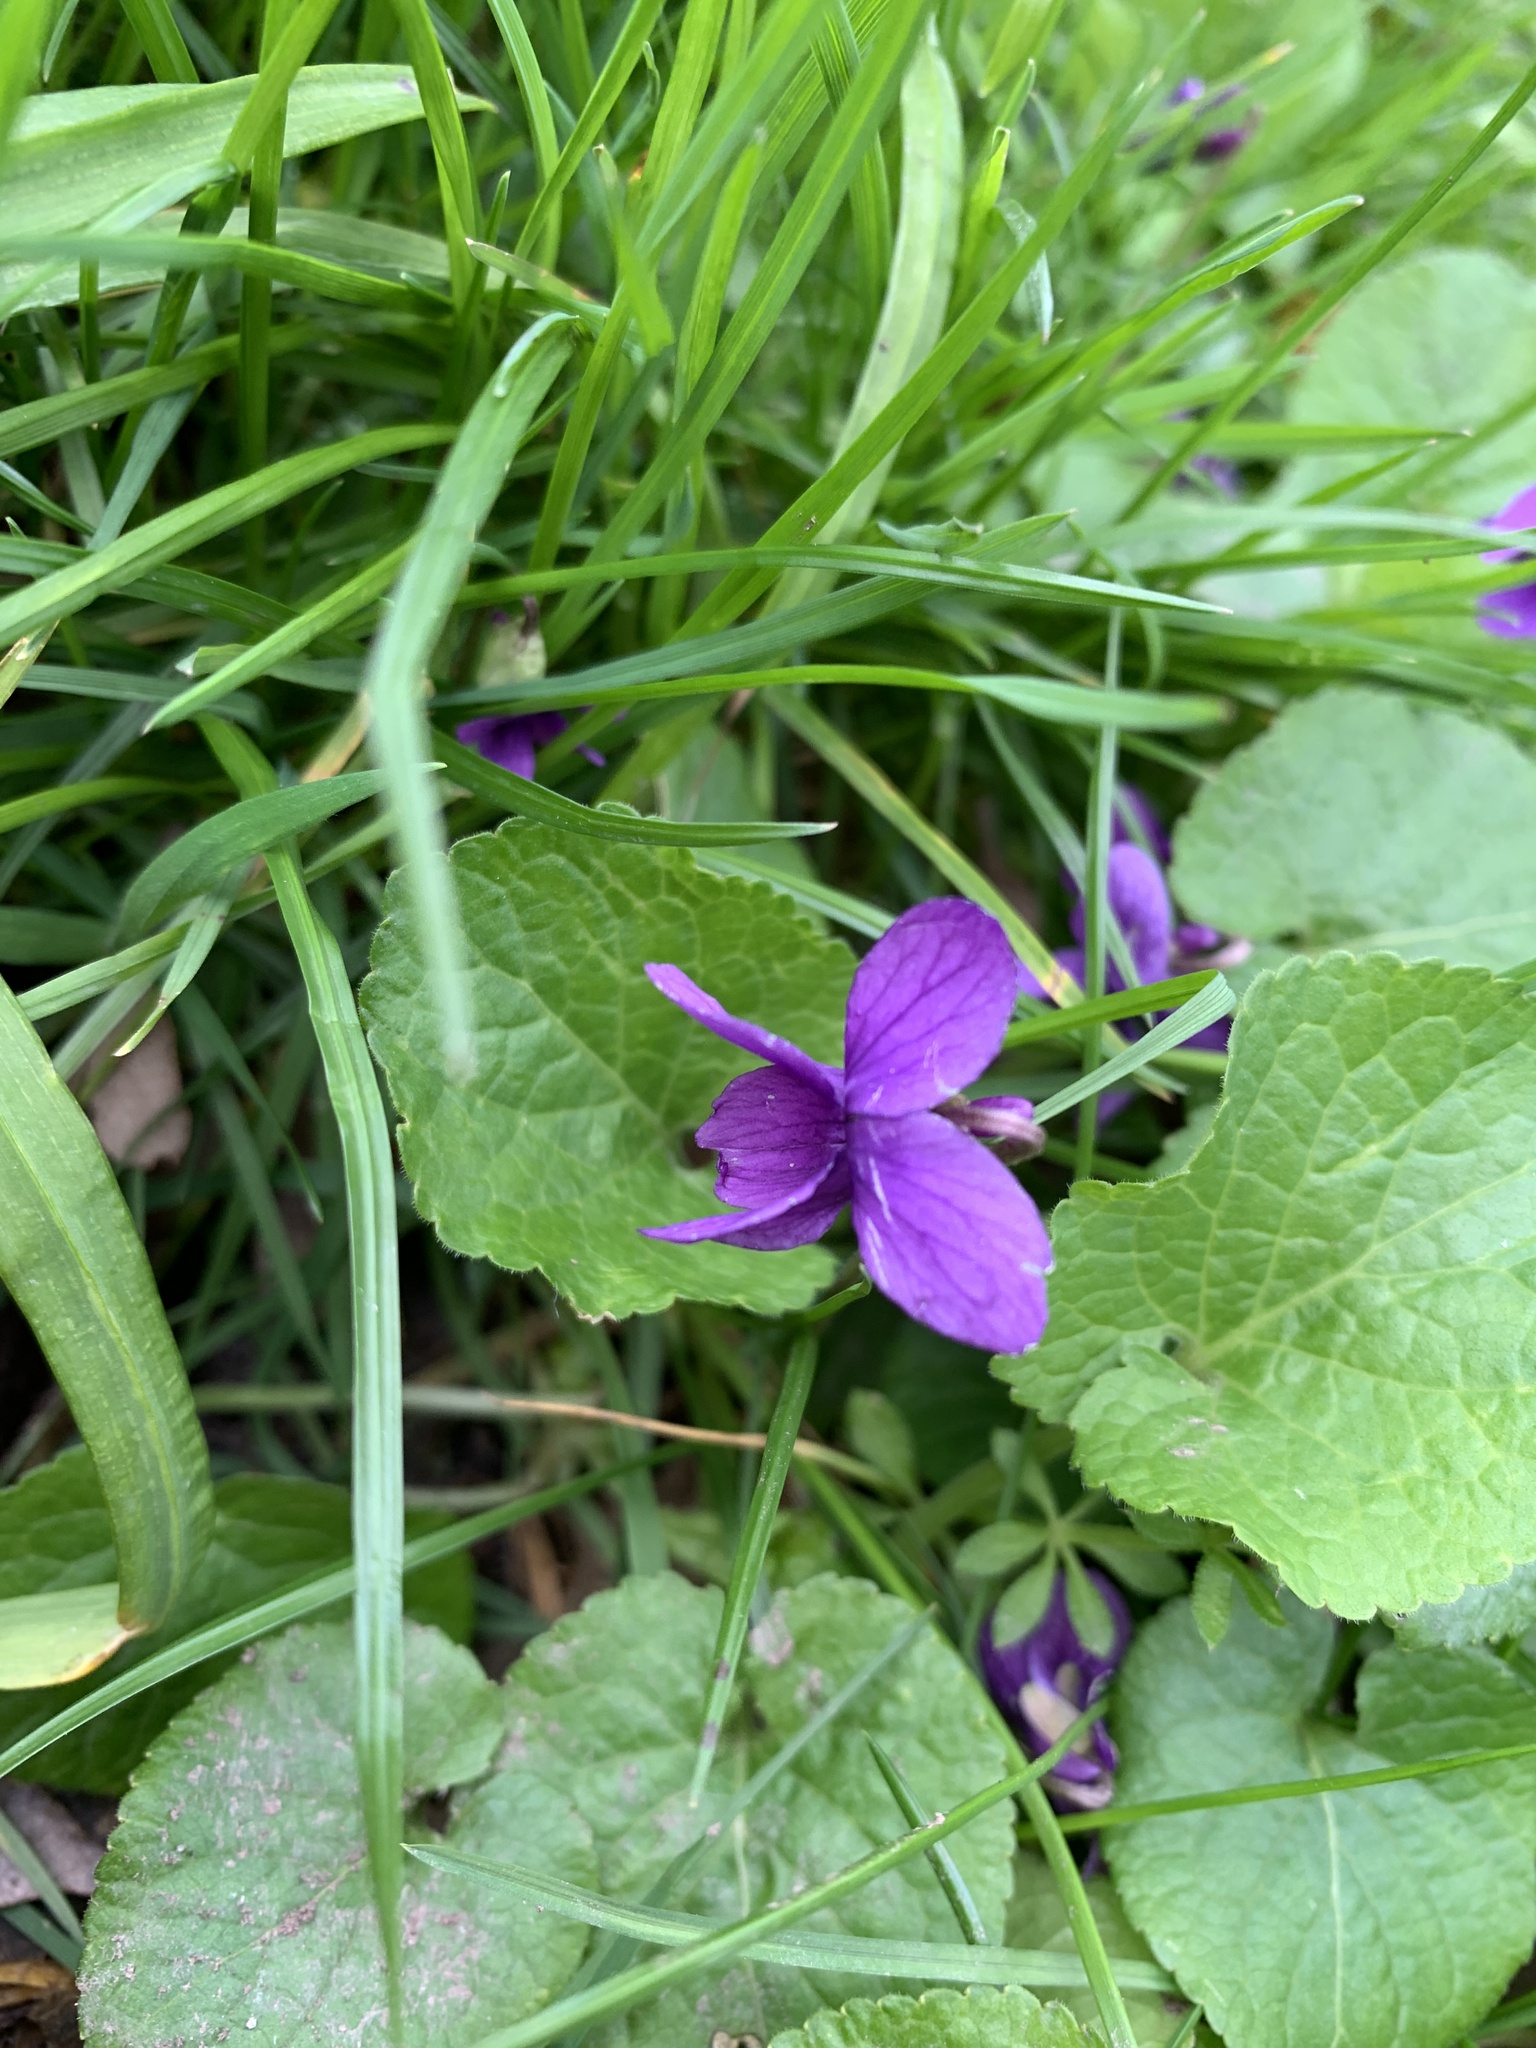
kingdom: Plantae
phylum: Tracheophyta
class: Magnoliopsida
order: Malpighiales
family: Violaceae
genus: Viola
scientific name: Viola odorata
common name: Sweet violet
